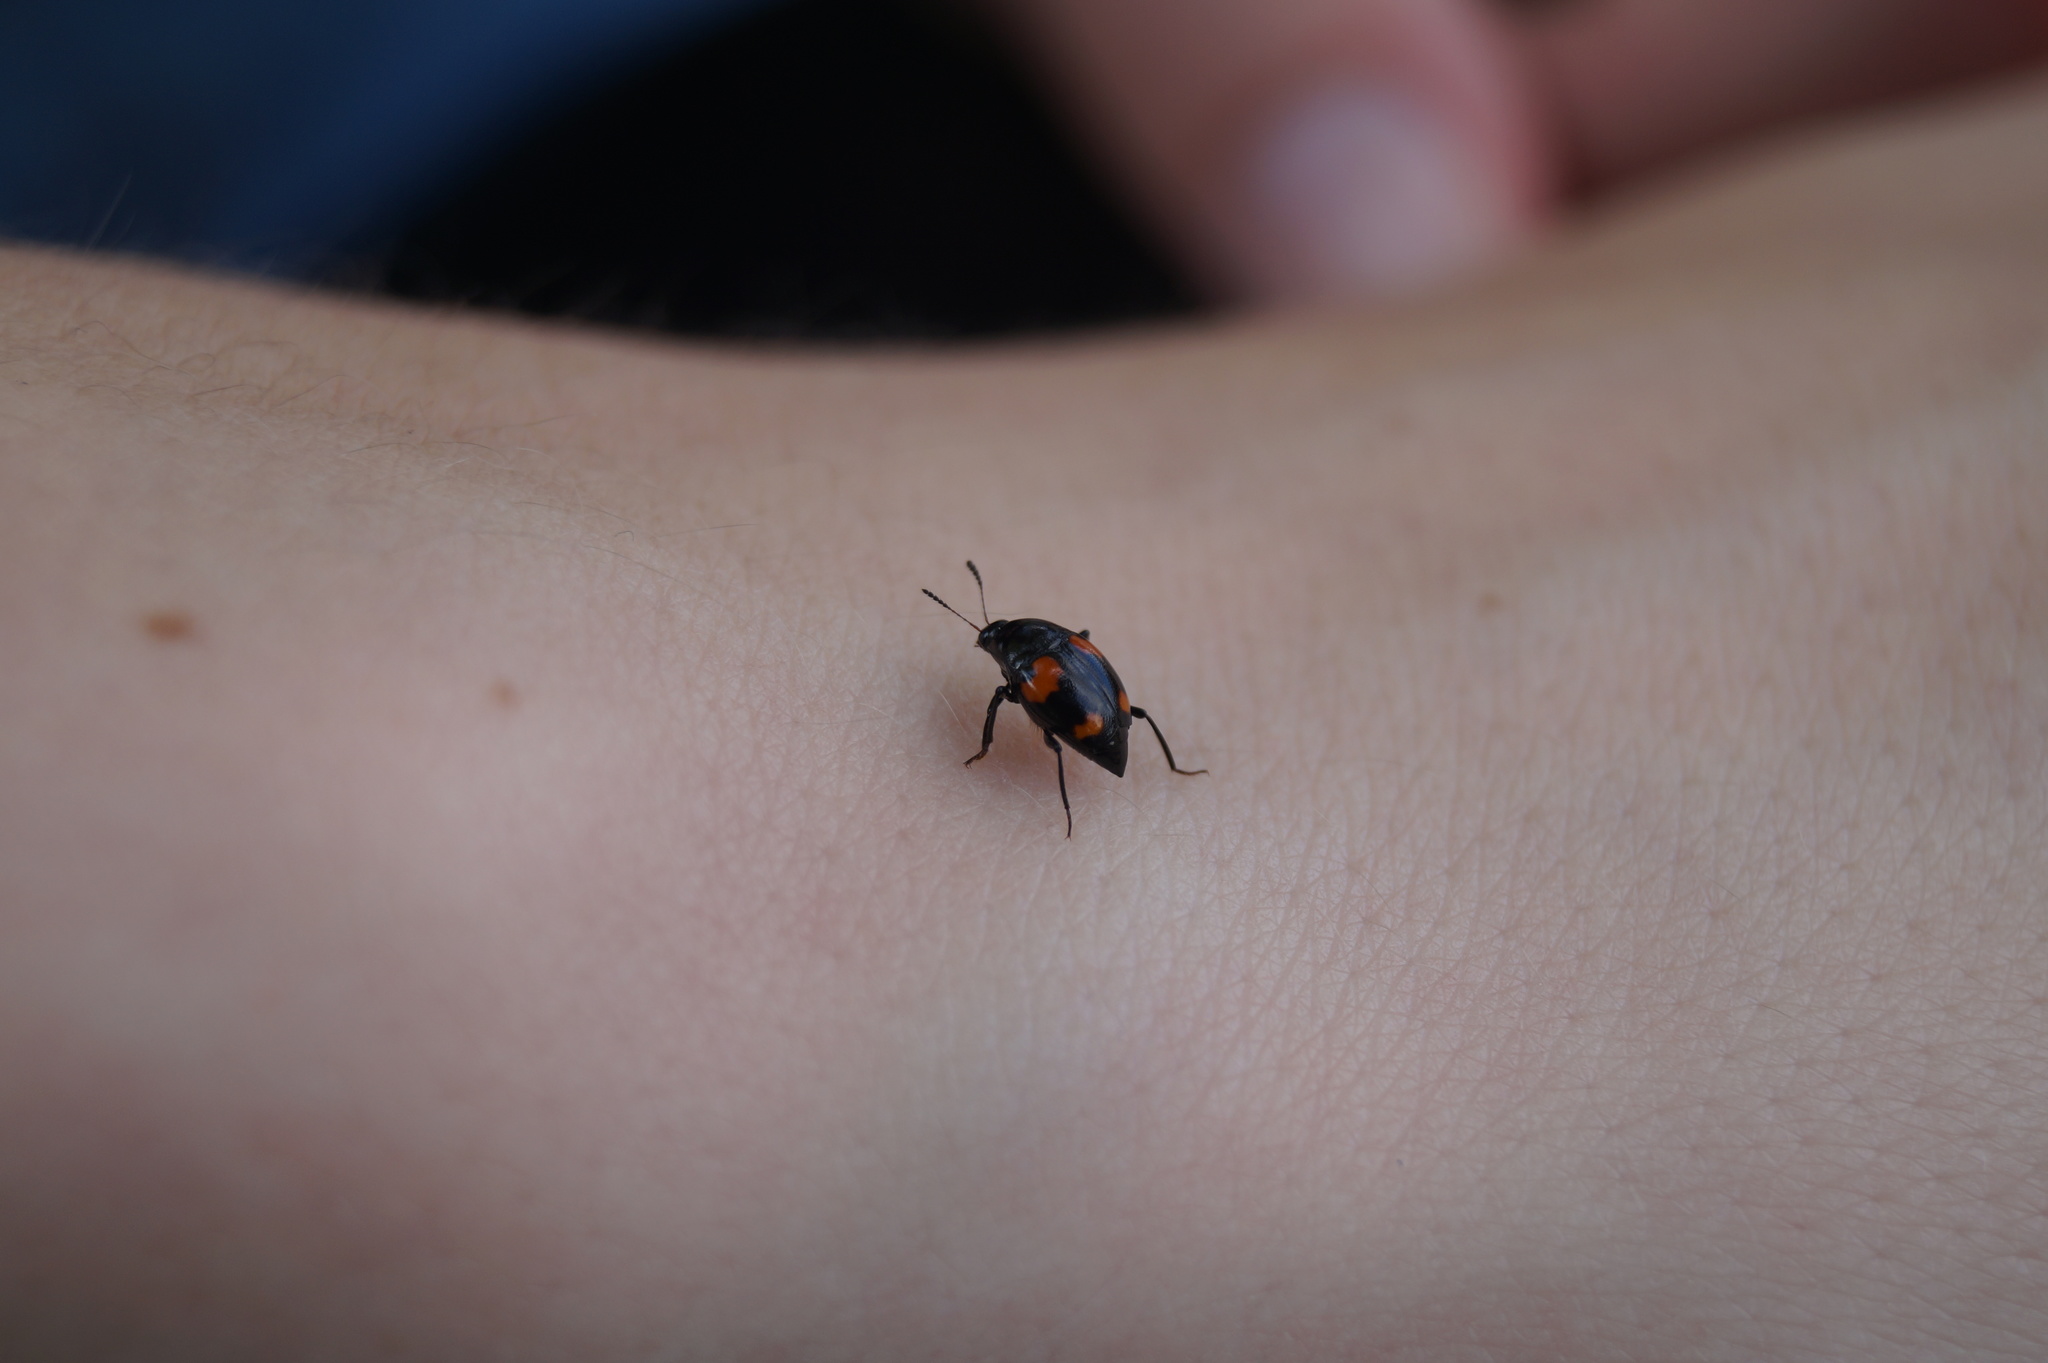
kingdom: Animalia
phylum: Arthropoda
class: Insecta
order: Coleoptera
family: Staphylinidae
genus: Scaphidium
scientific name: Scaphidium quadrimaculatum
